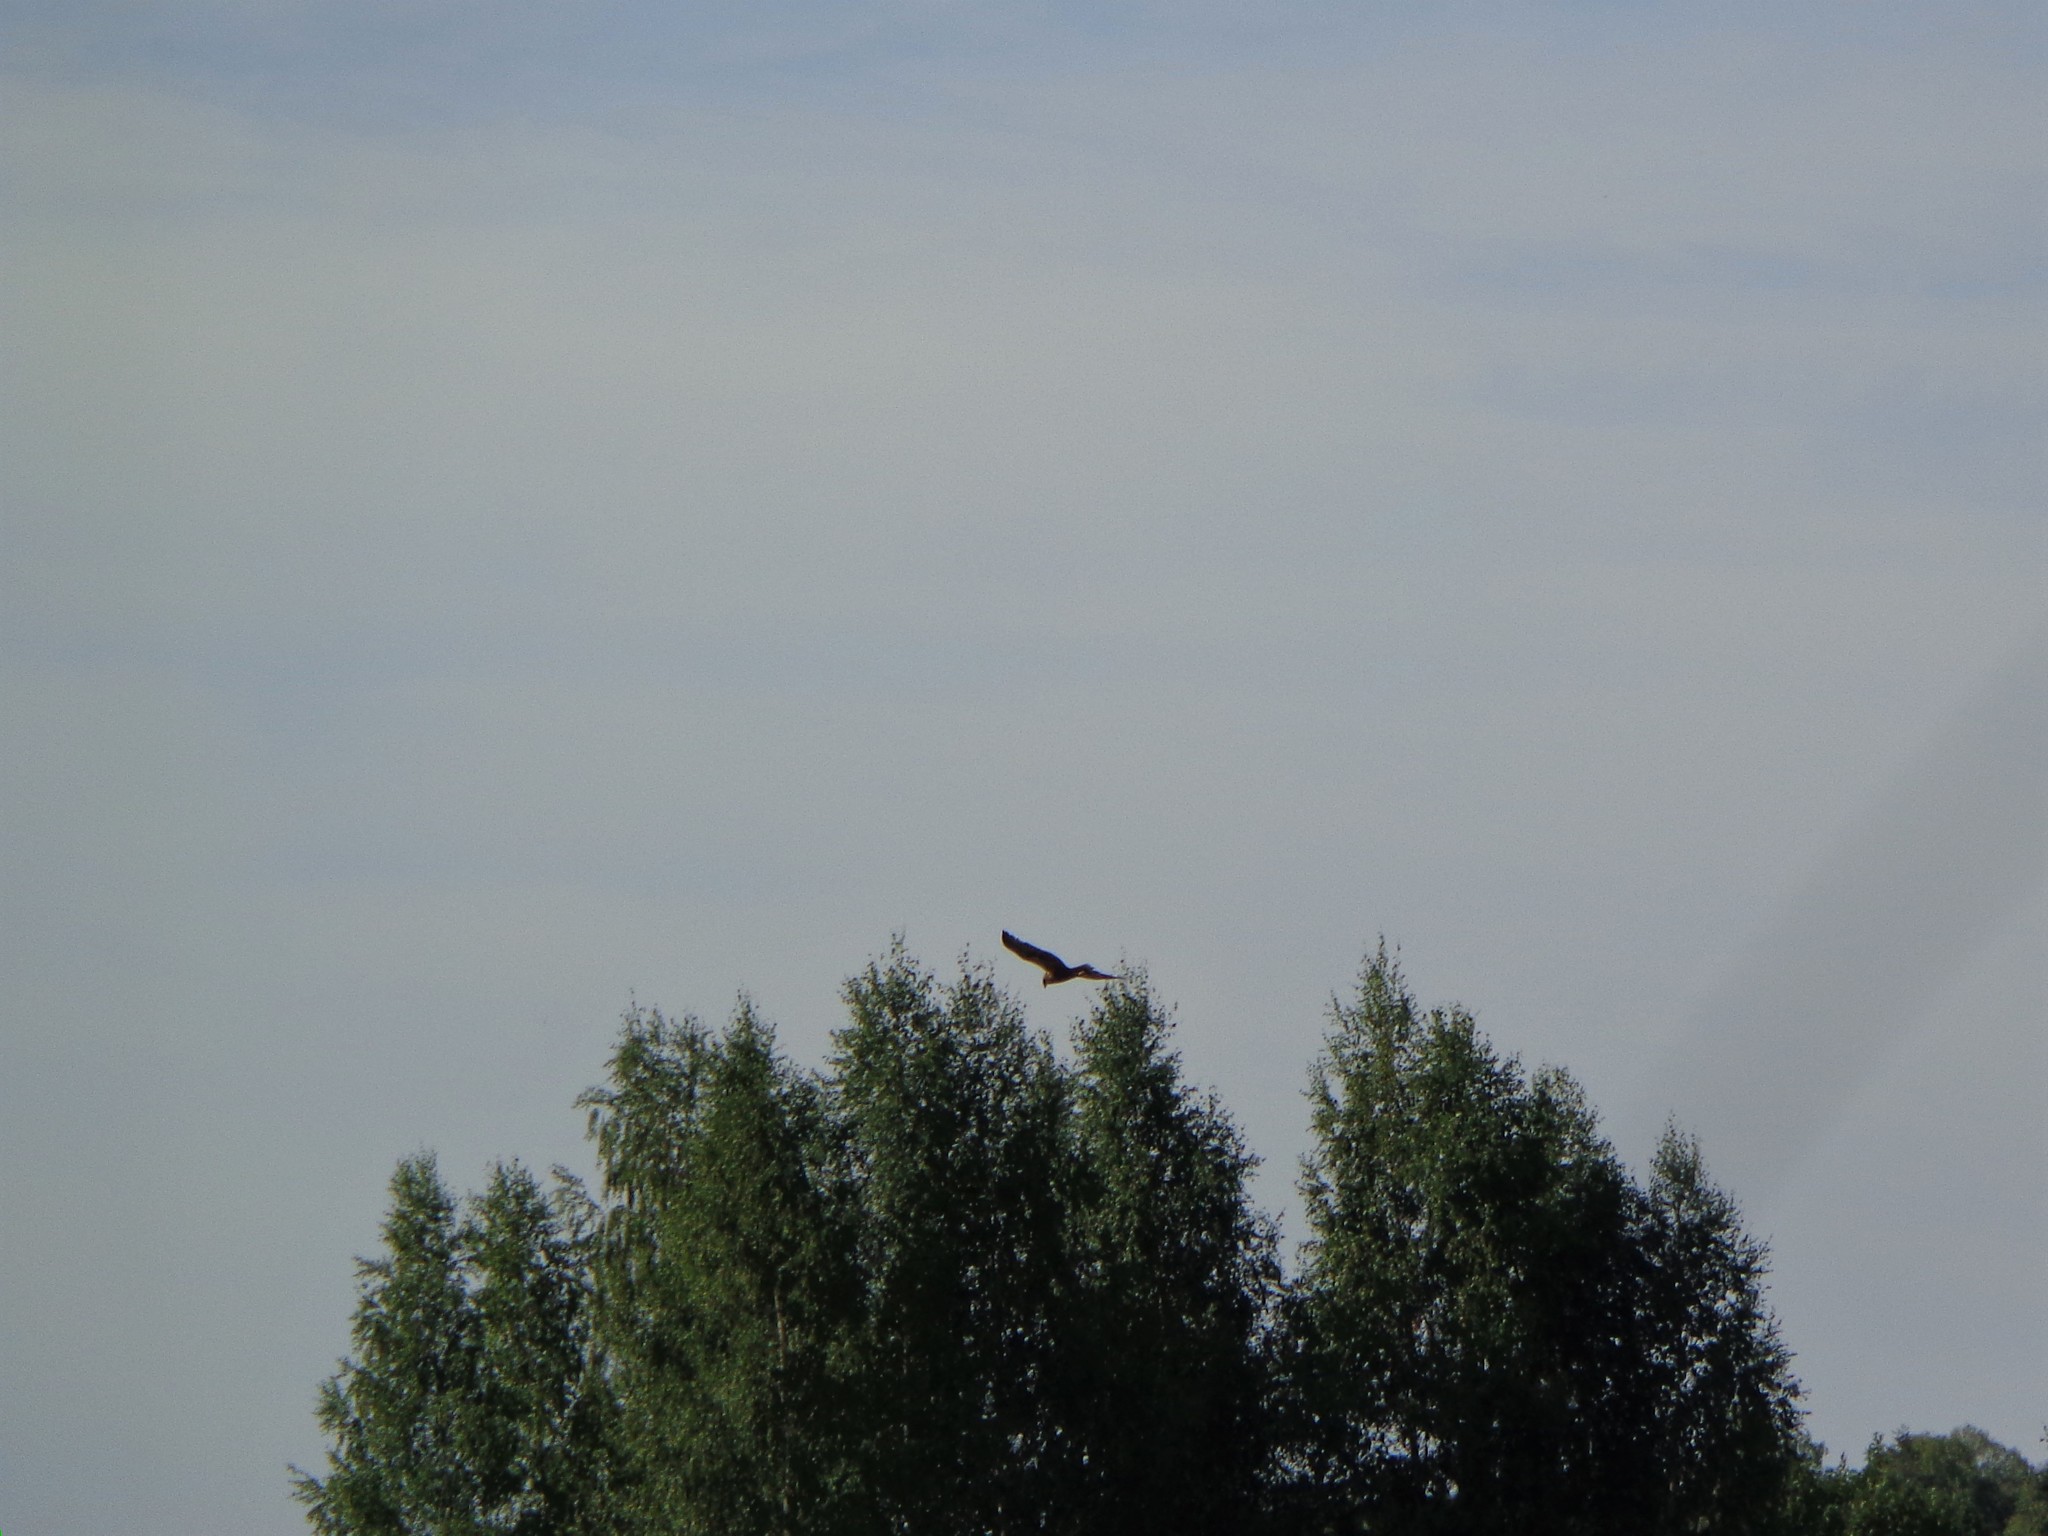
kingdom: Animalia
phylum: Chordata
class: Aves
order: Accipitriformes
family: Accipitridae
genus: Milvus
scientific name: Milvus migrans
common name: Black kite
